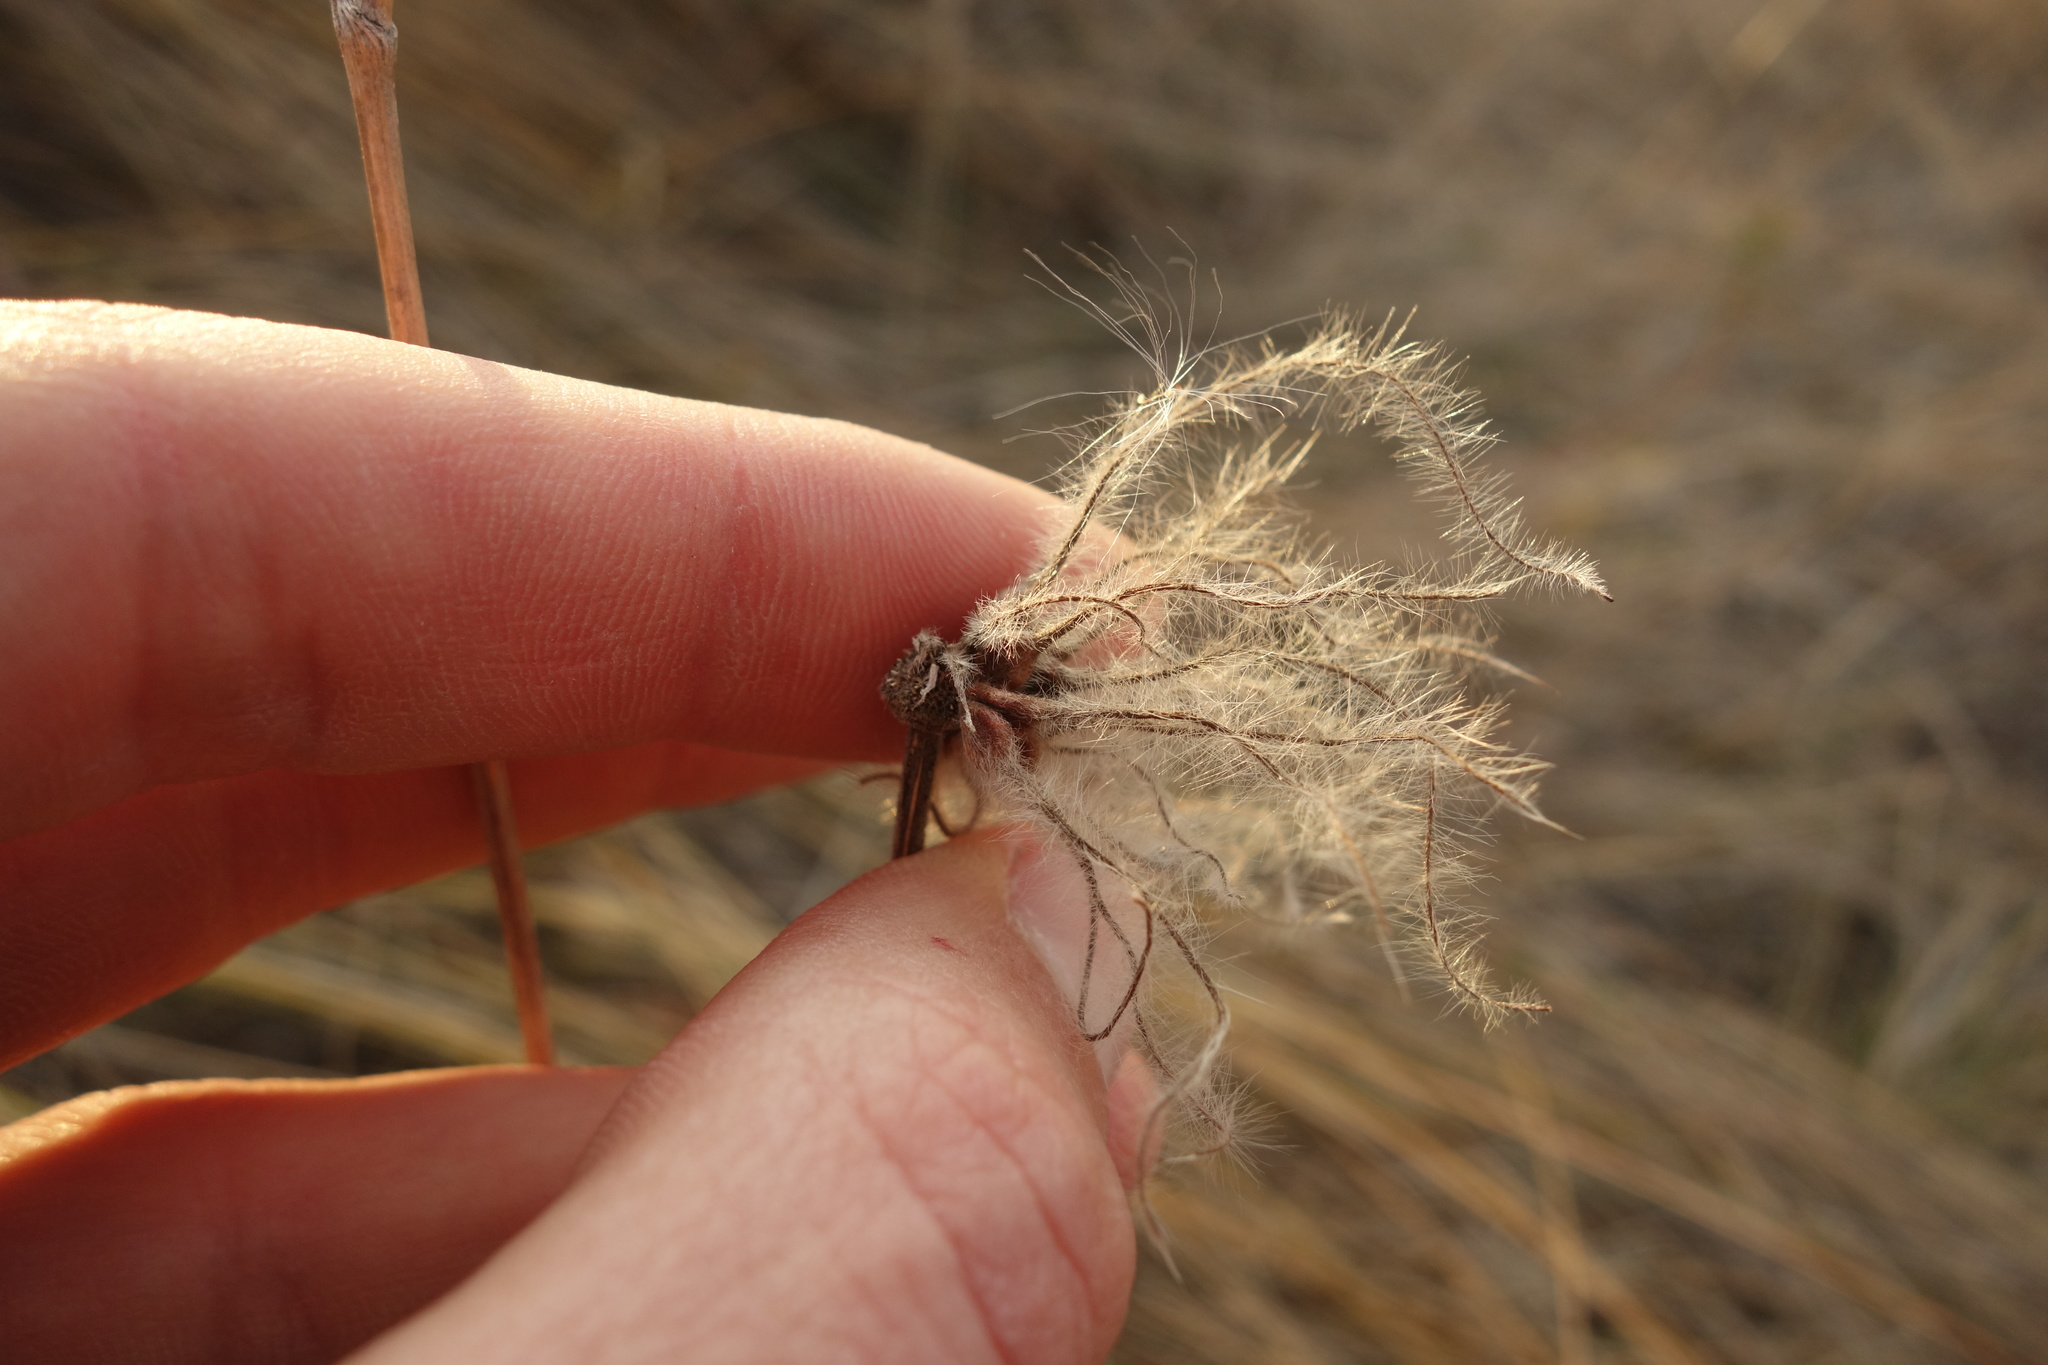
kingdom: Plantae
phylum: Tracheophyta
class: Magnoliopsida
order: Ranunculales
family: Ranunculaceae
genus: Clematis
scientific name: Clematis integrifolia
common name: Solitary clematis
